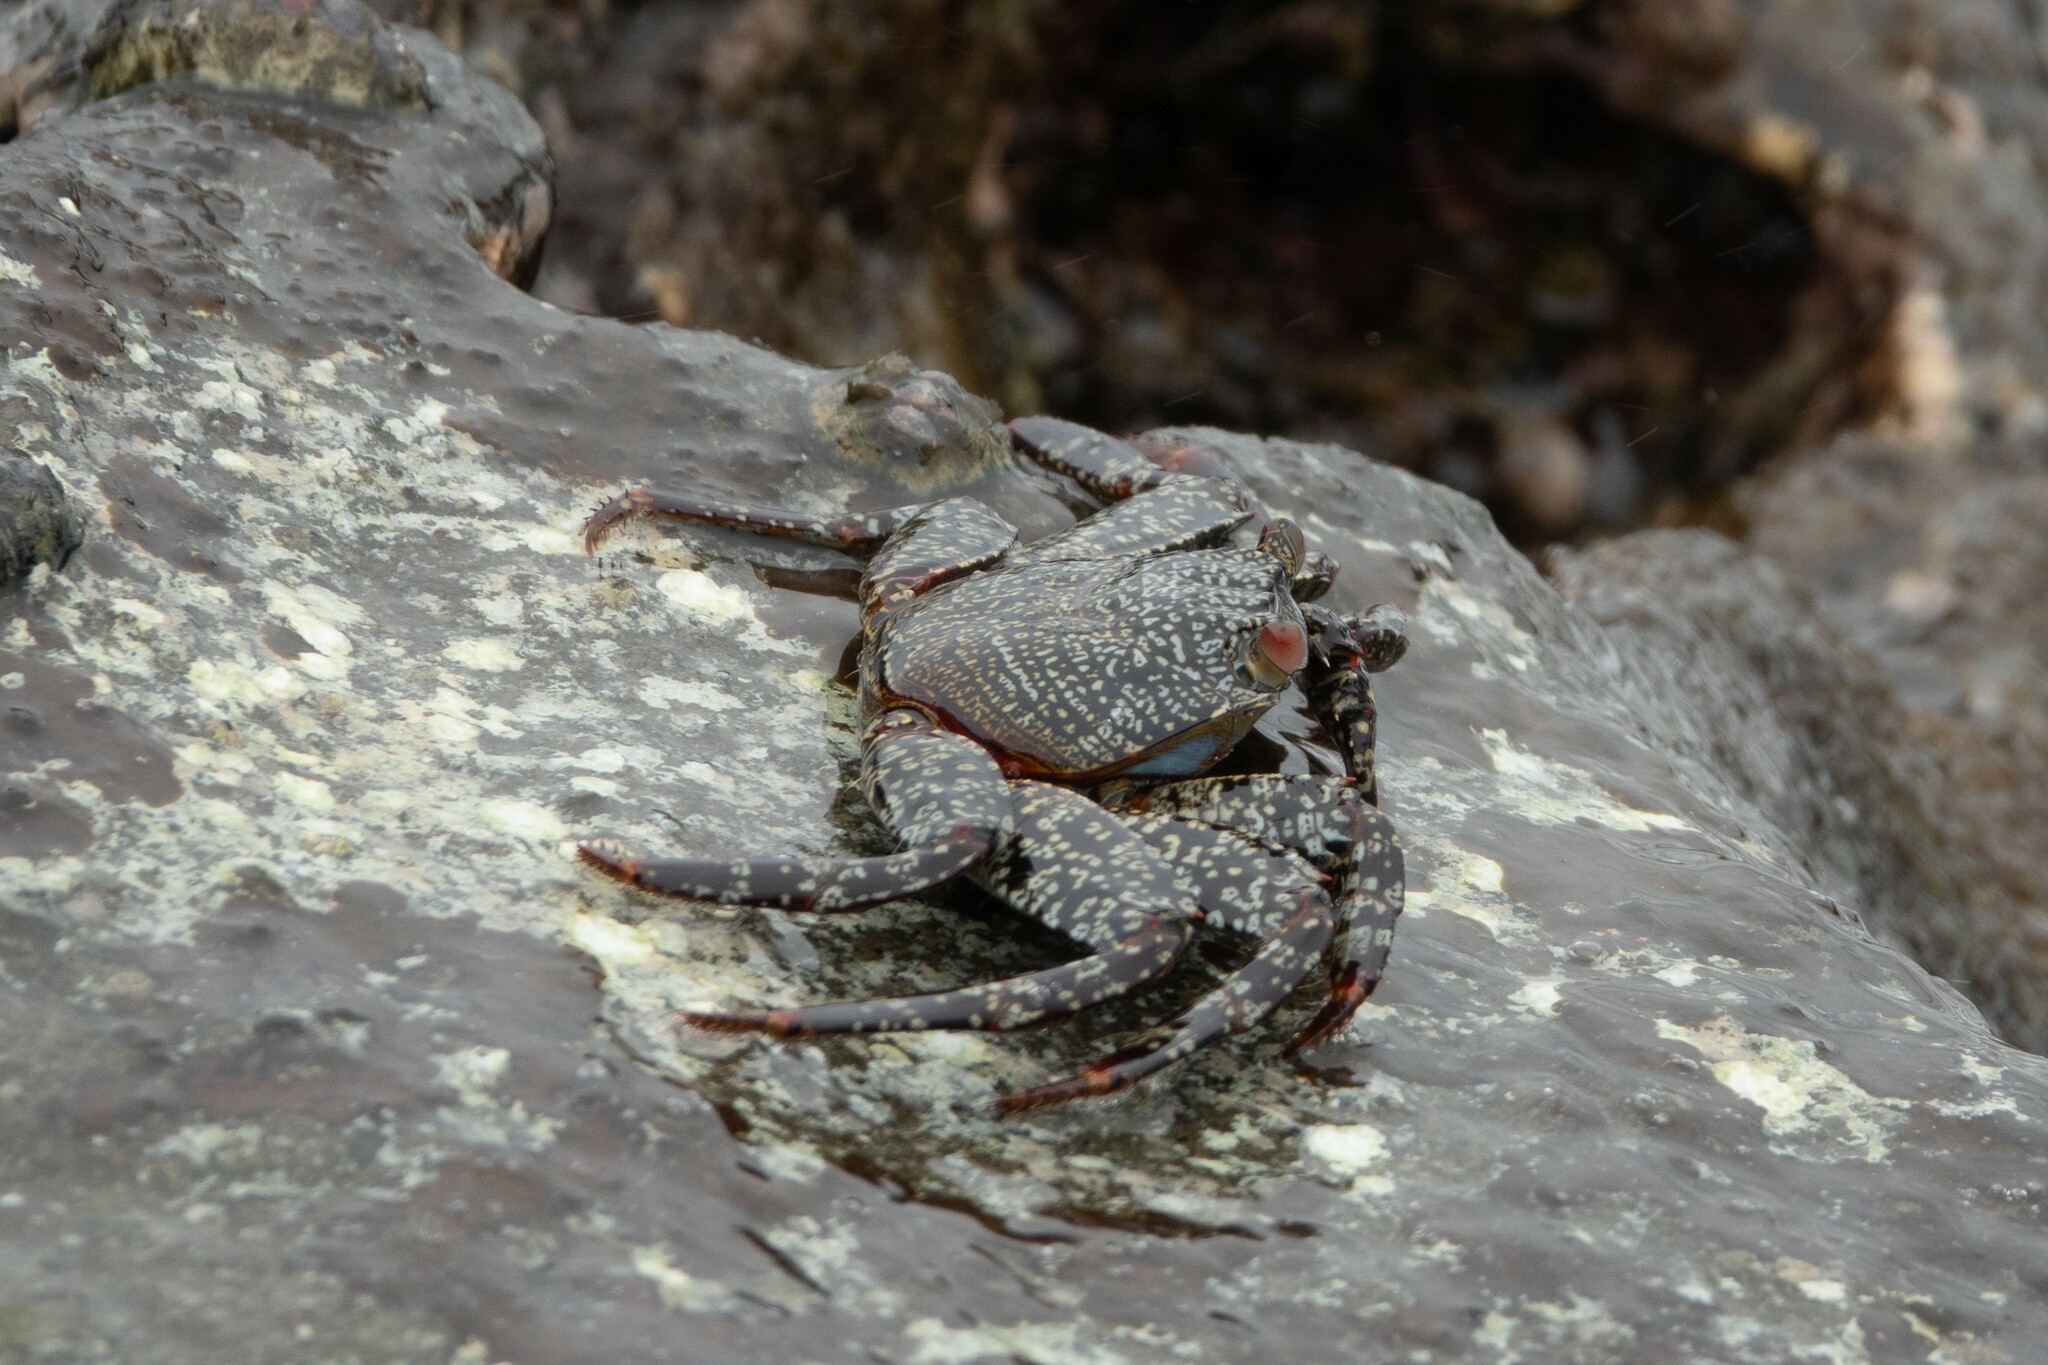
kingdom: Animalia
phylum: Arthropoda
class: Malacostraca
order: Decapoda
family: Grapsidae
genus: Grapsus
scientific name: Grapsus grapsus
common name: Sally lightfoot
